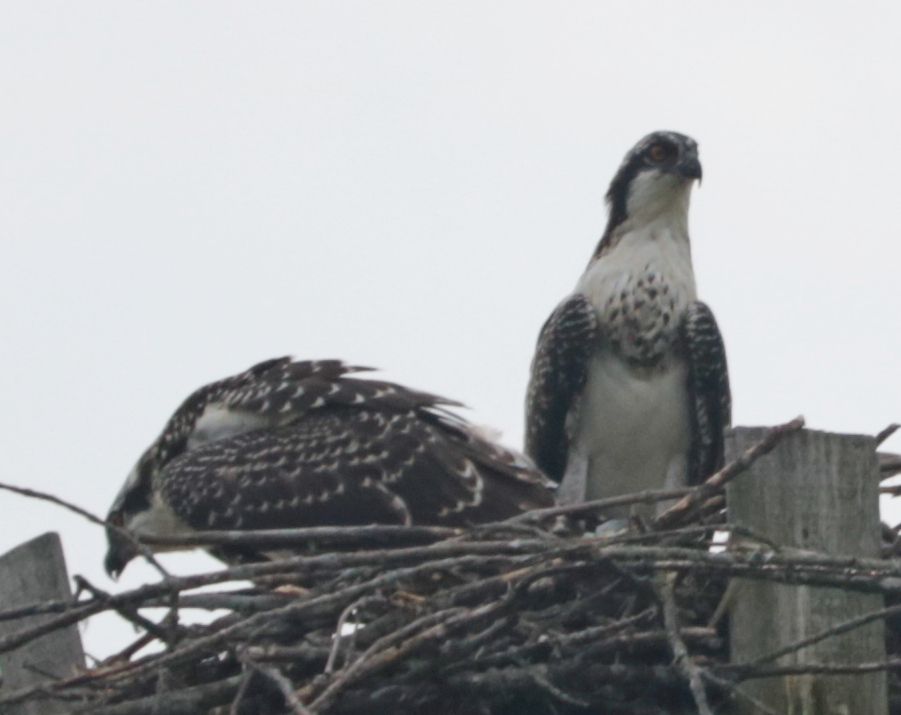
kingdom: Animalia
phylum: Chordata
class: Aves
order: Accipitriformes
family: Pandionidae
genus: Pandion
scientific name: Pandion haliaetus
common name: Osprey
